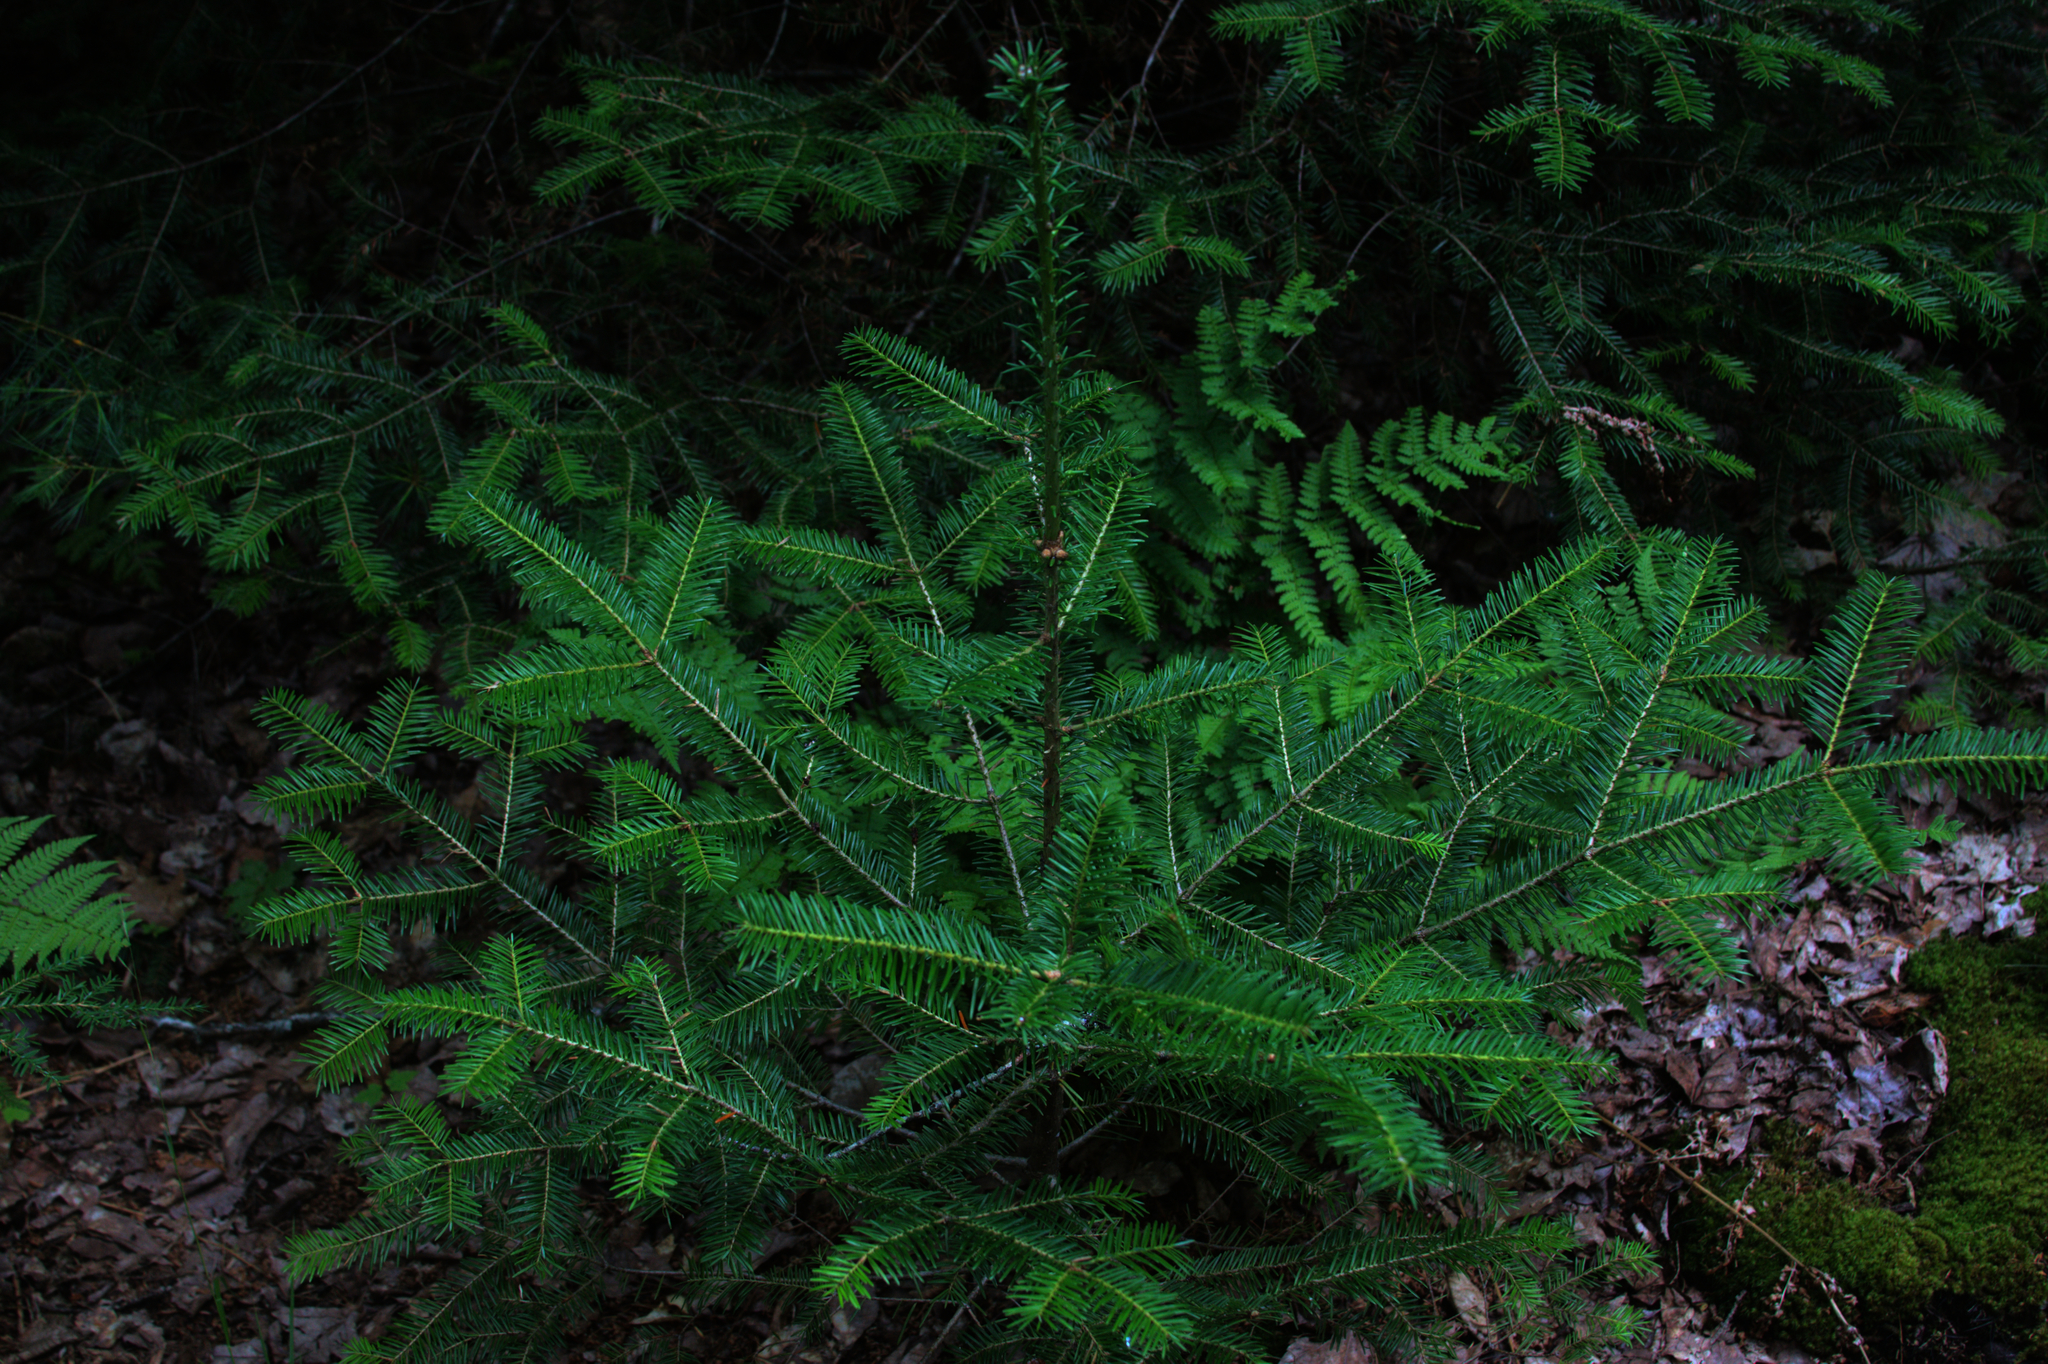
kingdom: Plantae
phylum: Tracheophyta
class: Pinopsida
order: Pinales
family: Pinaceae
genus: Abies
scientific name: Abies balsamea
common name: Balsam fir
